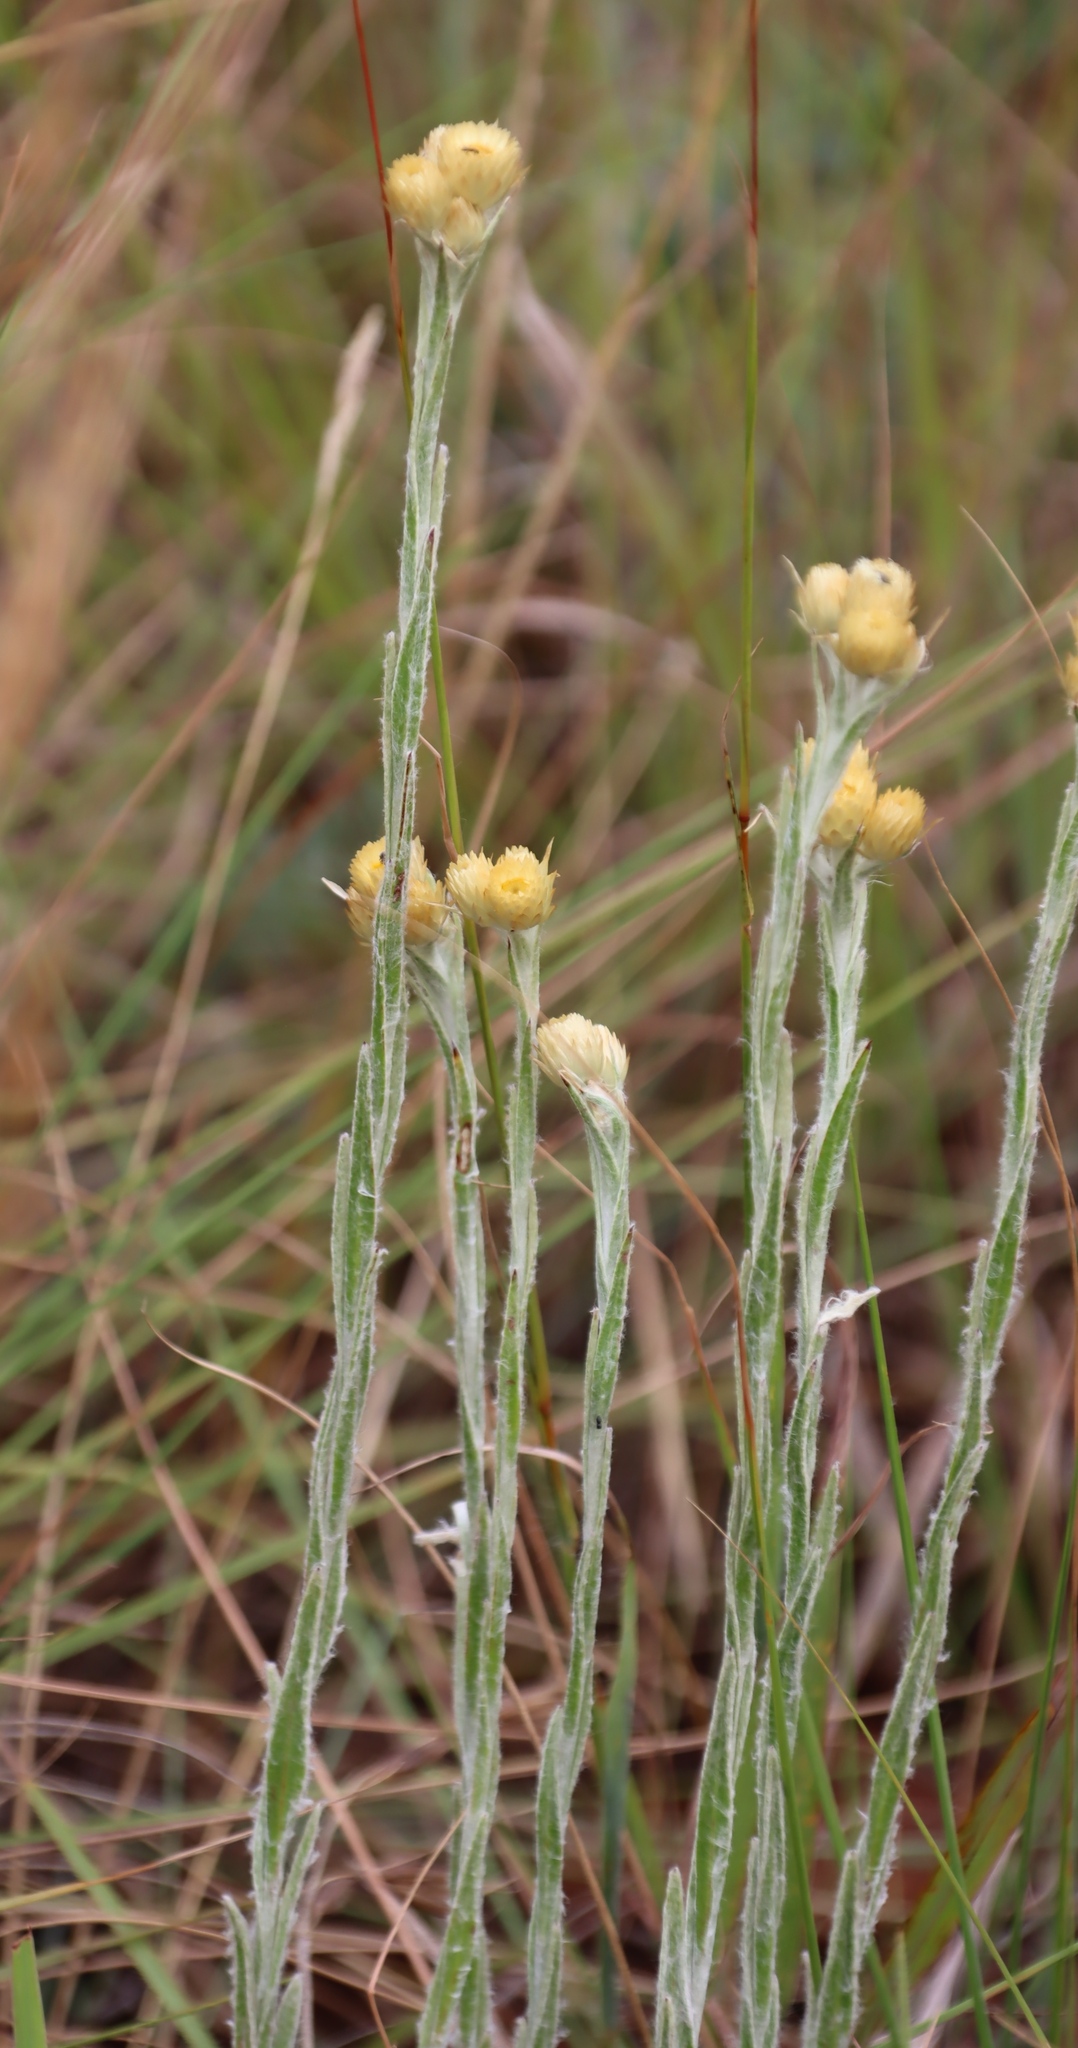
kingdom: Plantae
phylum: Tracheophyta
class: Magnoliopsida
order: Asterales
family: Asteraceae
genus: Helichrysum
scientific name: Helichrysum mixtum
